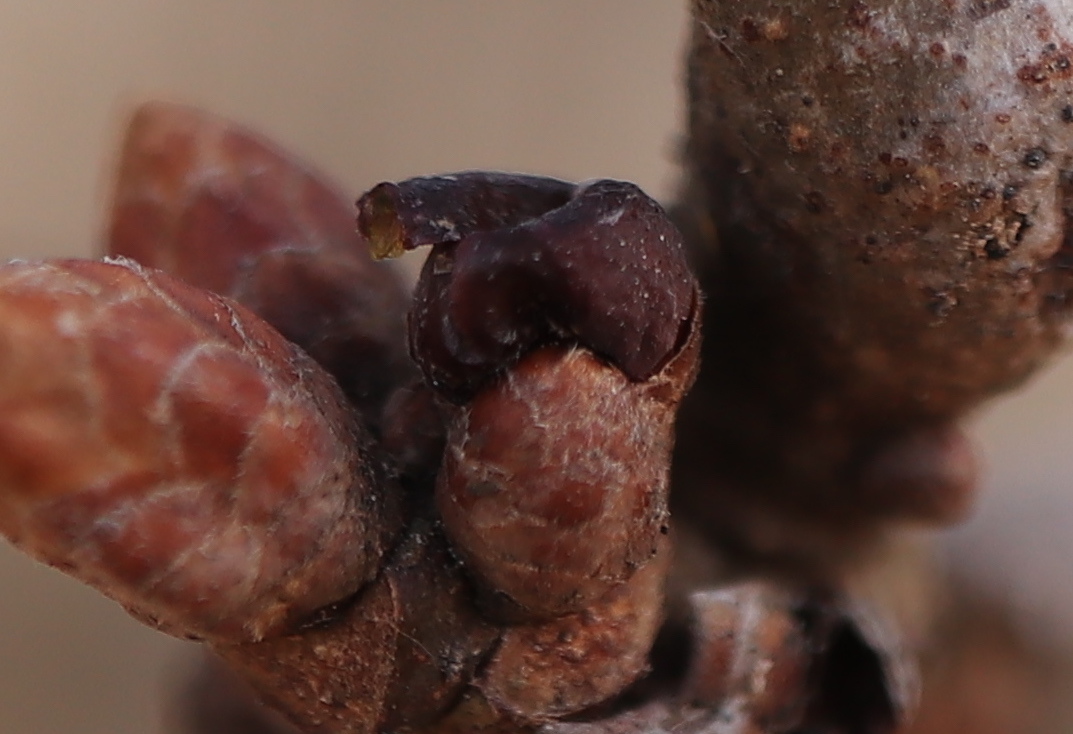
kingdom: Animalia
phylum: Arthropoda
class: Insecta
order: Hymenoptera
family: Cynipidae
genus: Neuroterus
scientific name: Neuroterus
